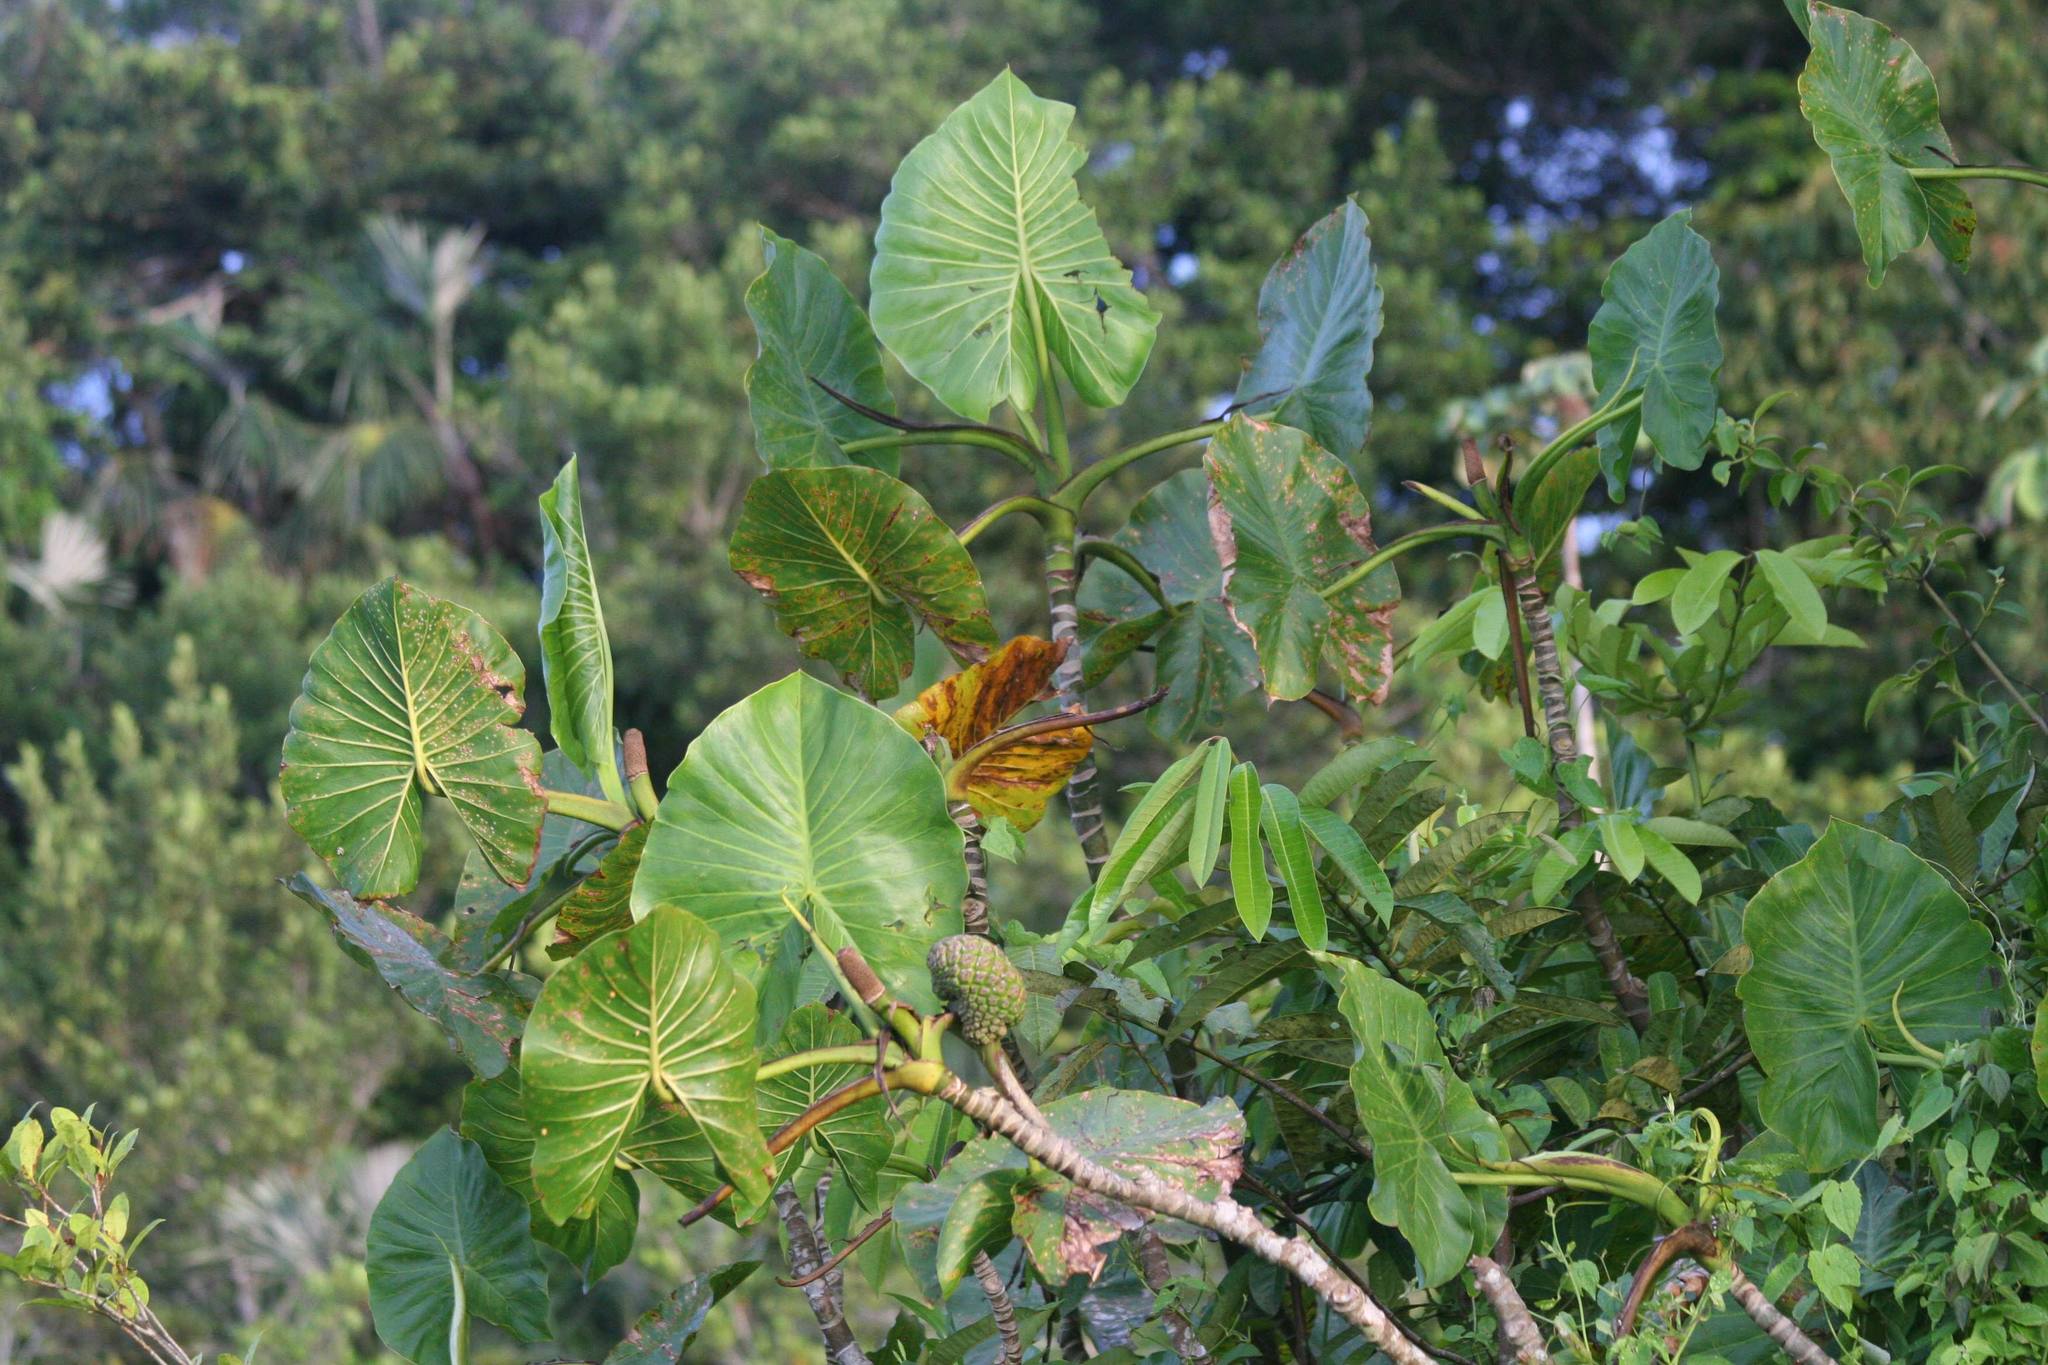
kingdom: Plantae
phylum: Tracheophyta
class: Liliopsida
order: Alismatales
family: Araceae
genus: Montrichardia
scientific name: Montrichardia linifera
